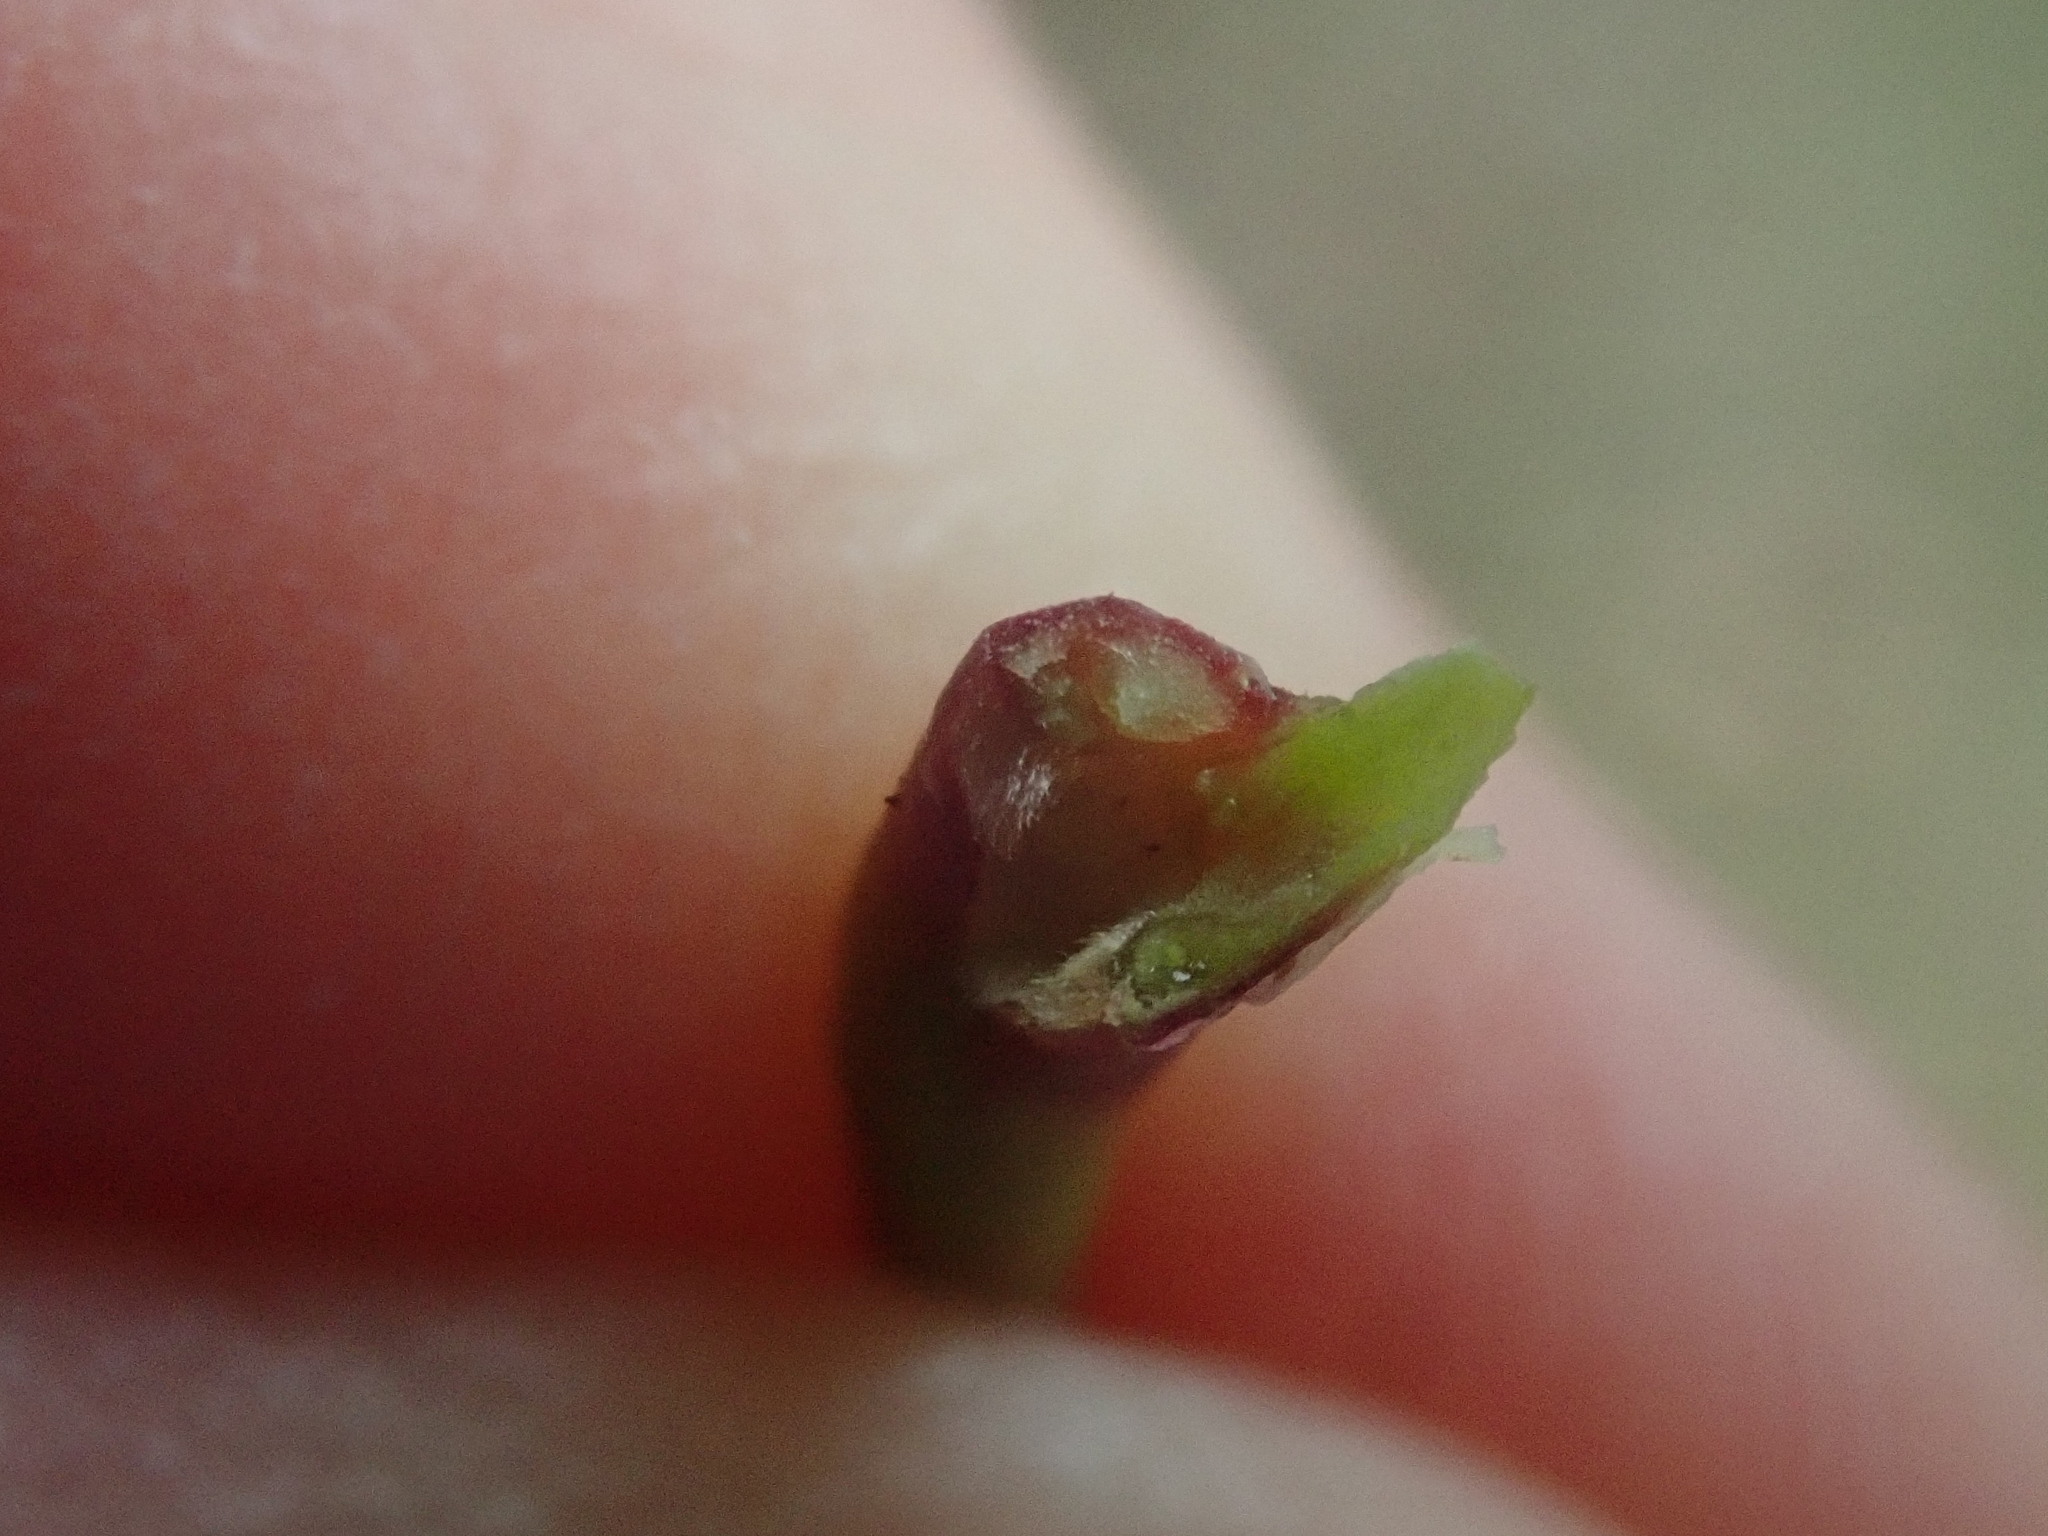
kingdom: Plantae
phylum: Tracheophyta
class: Magnoliopsida
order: Sapindales
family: Sapindaceae
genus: Acer
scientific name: Acer saccharum
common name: Sugar maple
